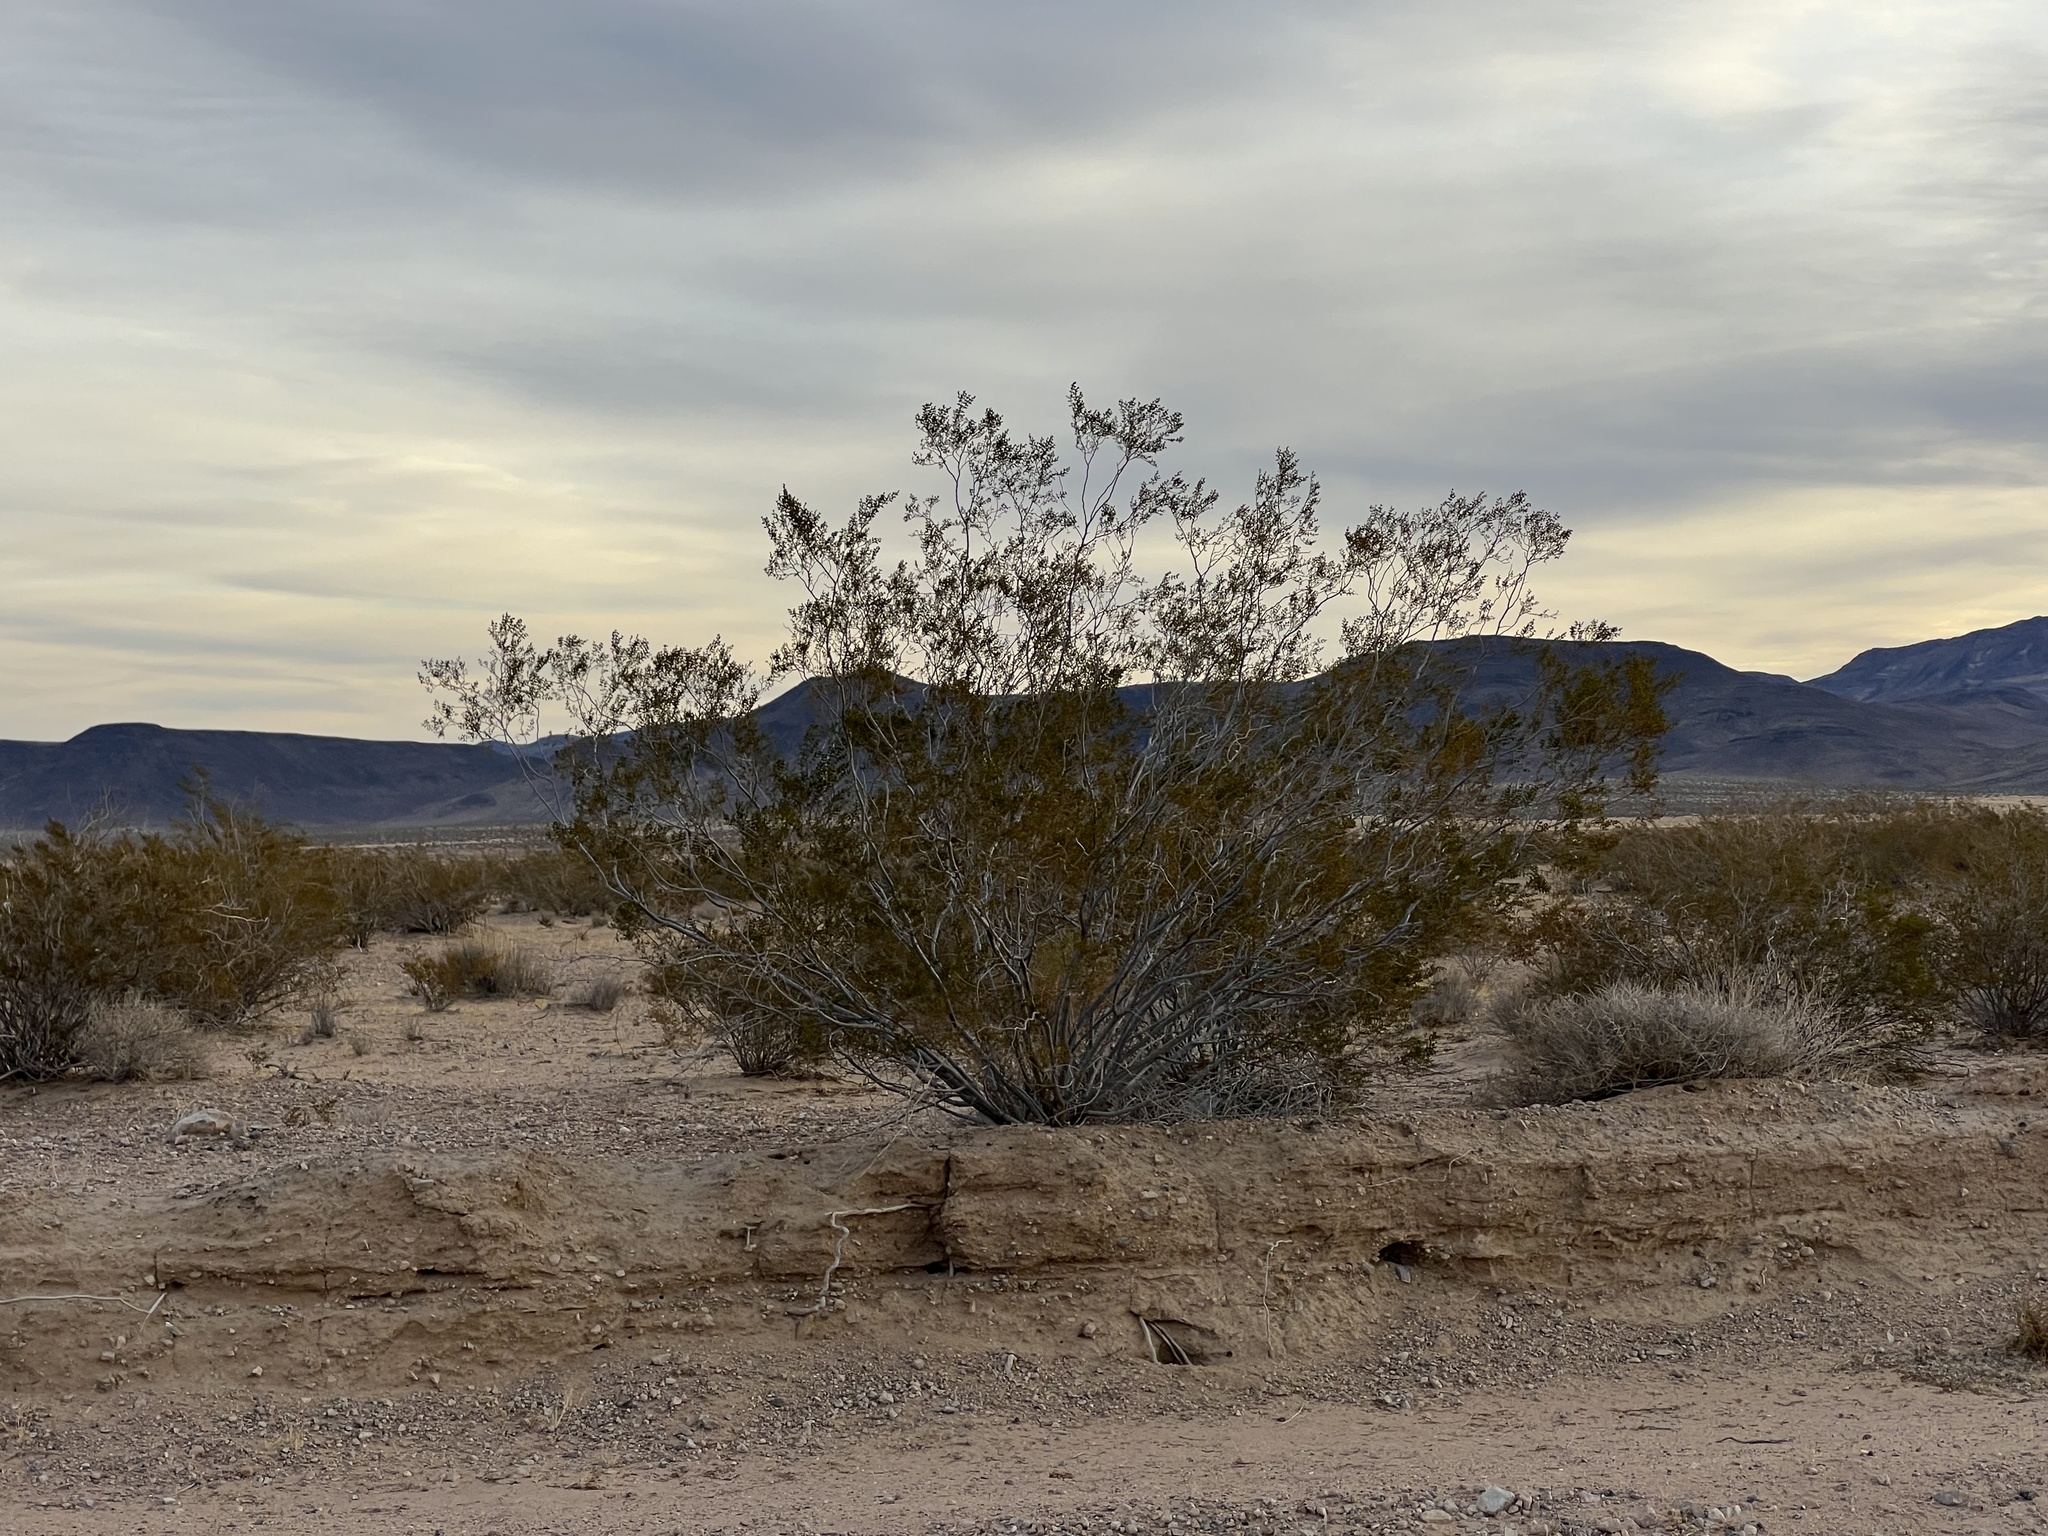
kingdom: Plantae
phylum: Tracheophyta
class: Magnoliopsida
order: Zygophyllales
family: Zygophyllaceae
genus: Larrea
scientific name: Larrea tridentata
